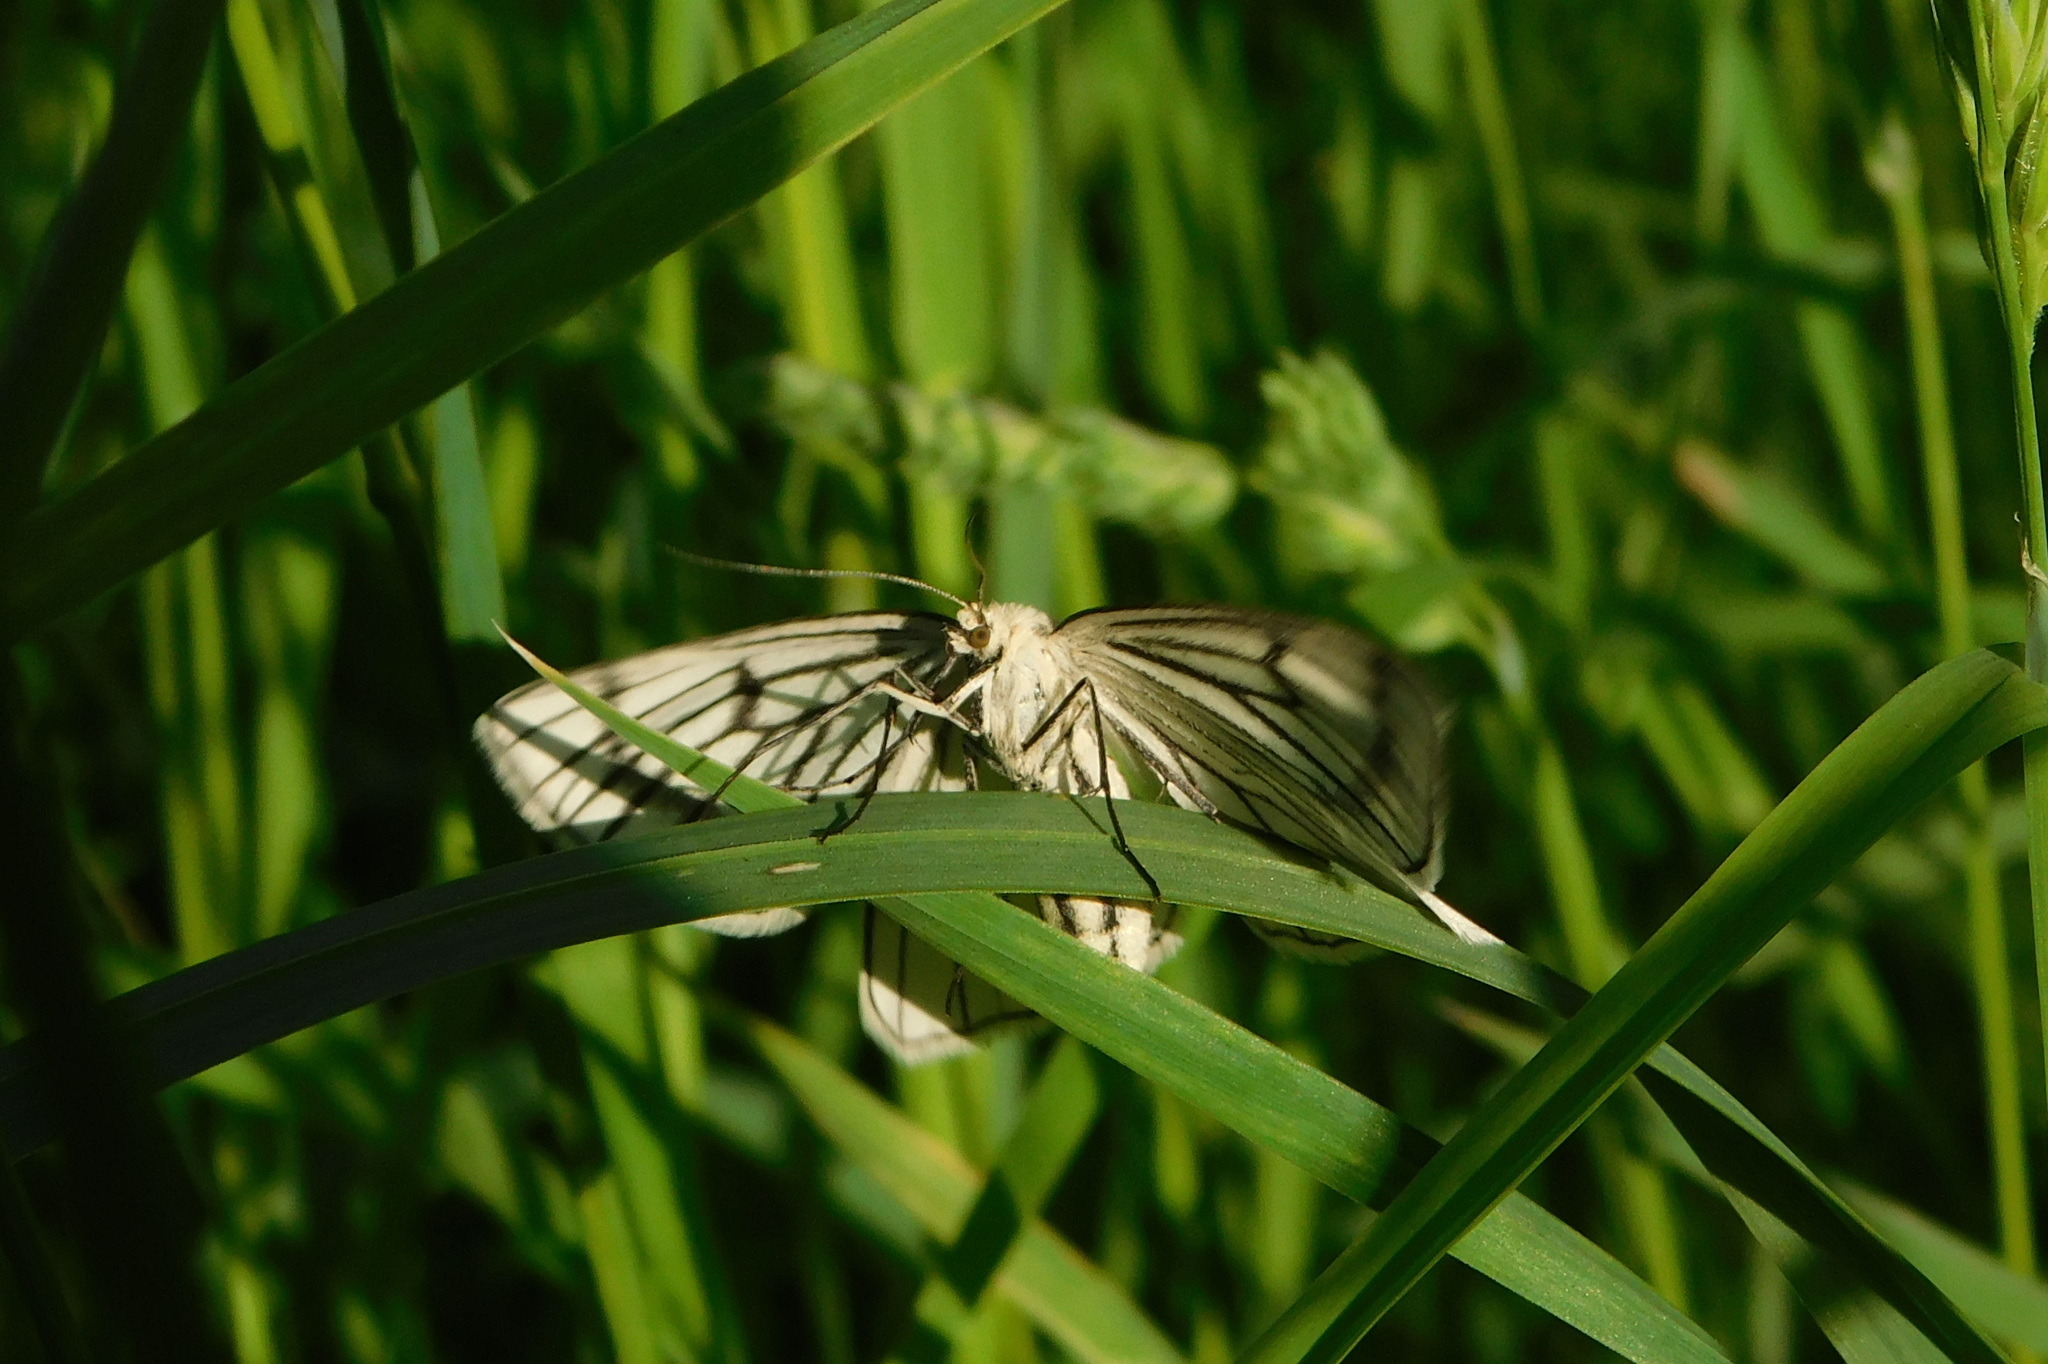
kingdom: Animalia
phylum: Arthropoda
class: Insecta
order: Lepidoptera
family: Geometridae
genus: Siona
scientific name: Siona lineata
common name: Black-veined moth
